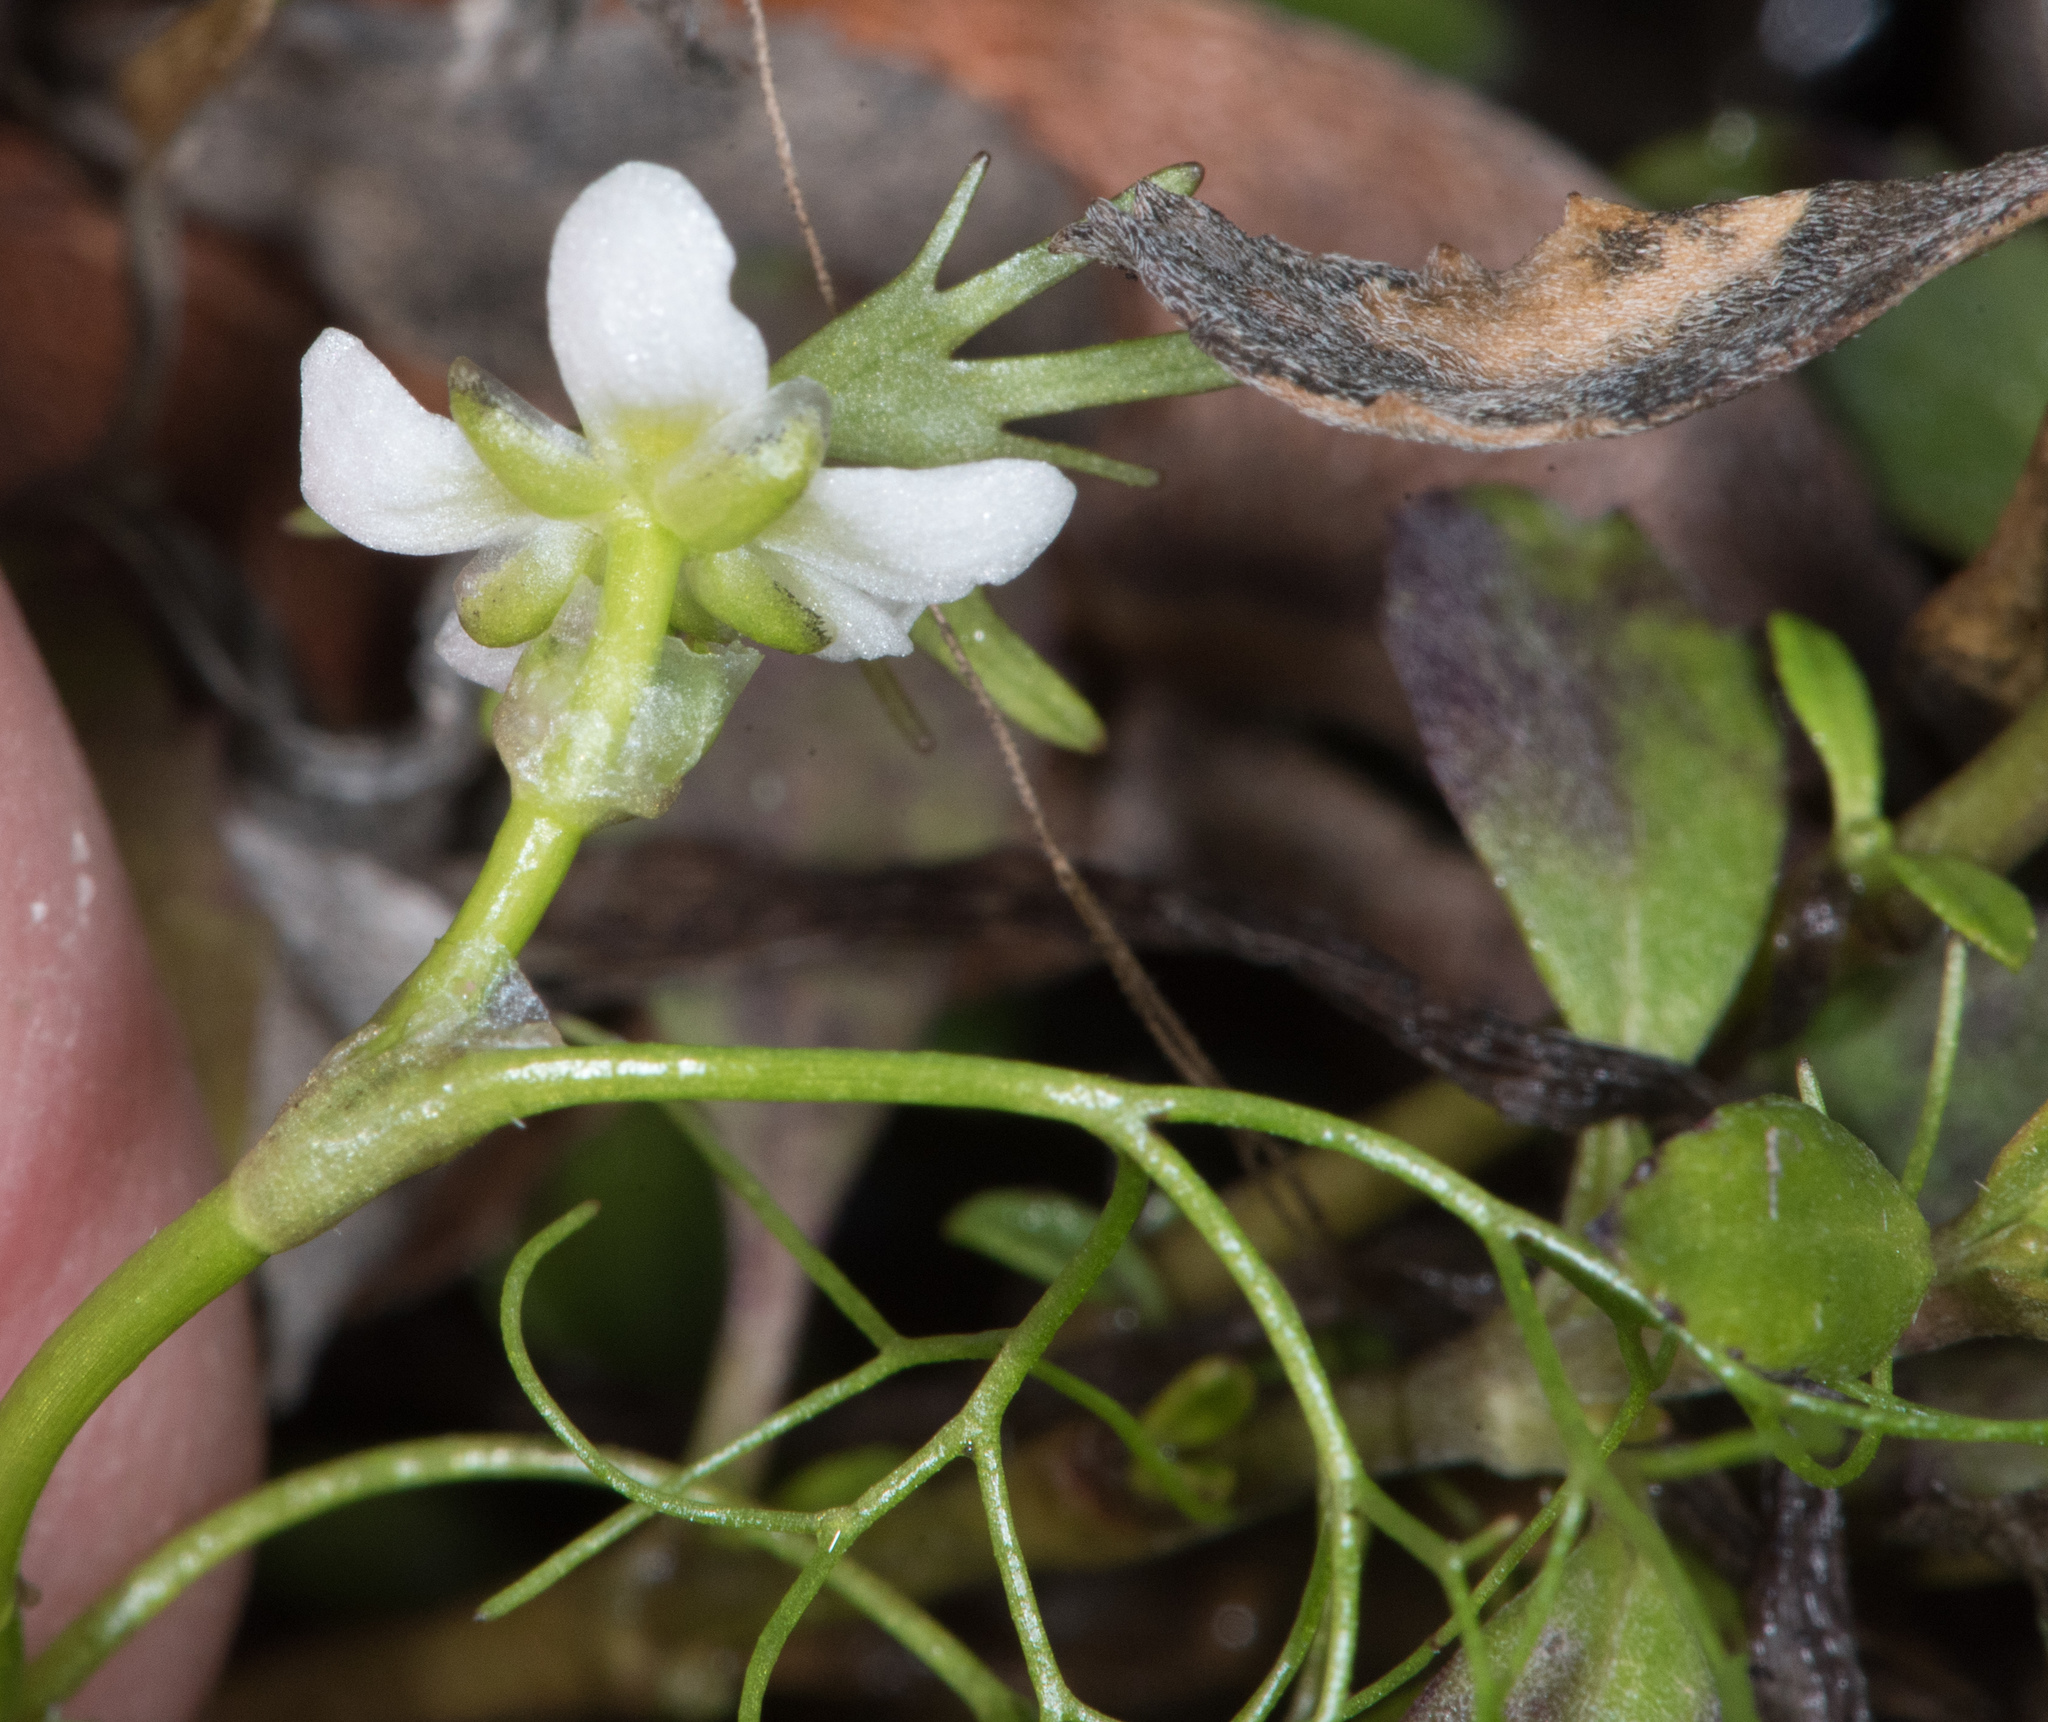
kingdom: Plantae
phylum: Tracheophyta
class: Magnoliopsida
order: Ranunculales
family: Ranunculaceae
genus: Ranunculus
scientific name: Ranunculus lobbii
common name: Lobb's buttercup
